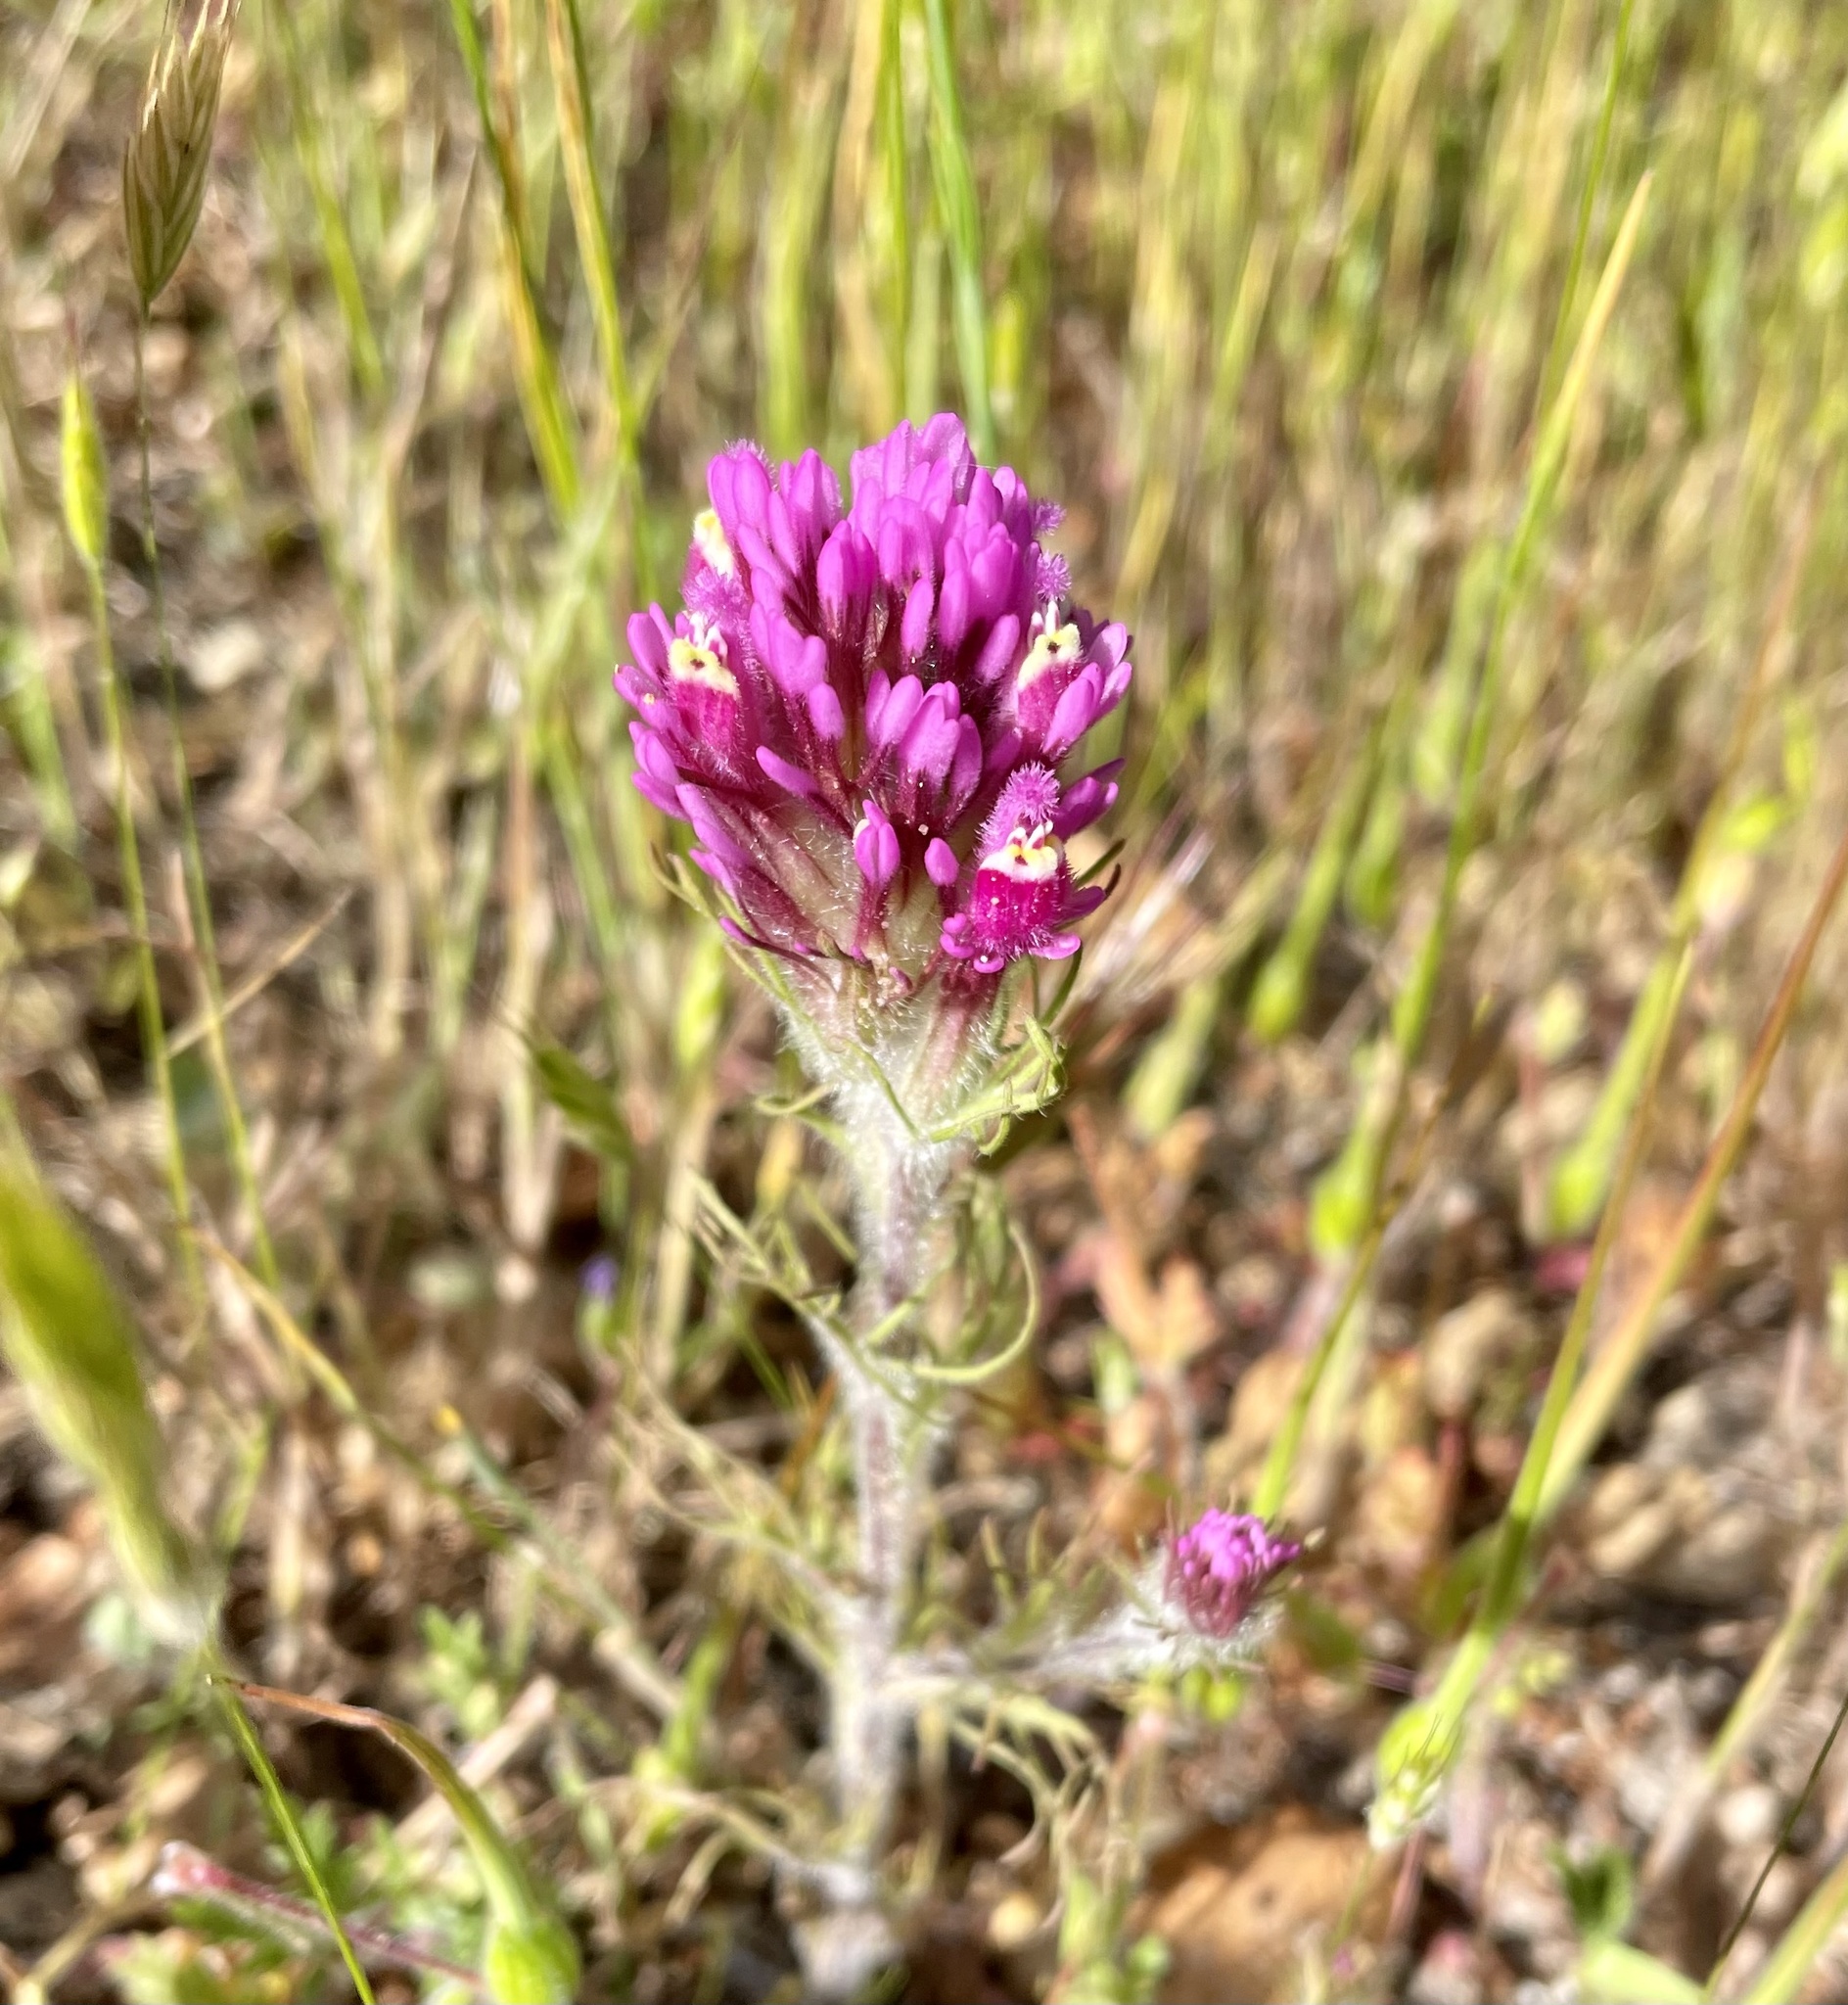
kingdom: Plantae
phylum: Tracheophyta
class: Magnoliopsida
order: Lamiales
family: Orobanchaceae
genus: Castilleja
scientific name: Castilleja exserta
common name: Purple owl-clover
